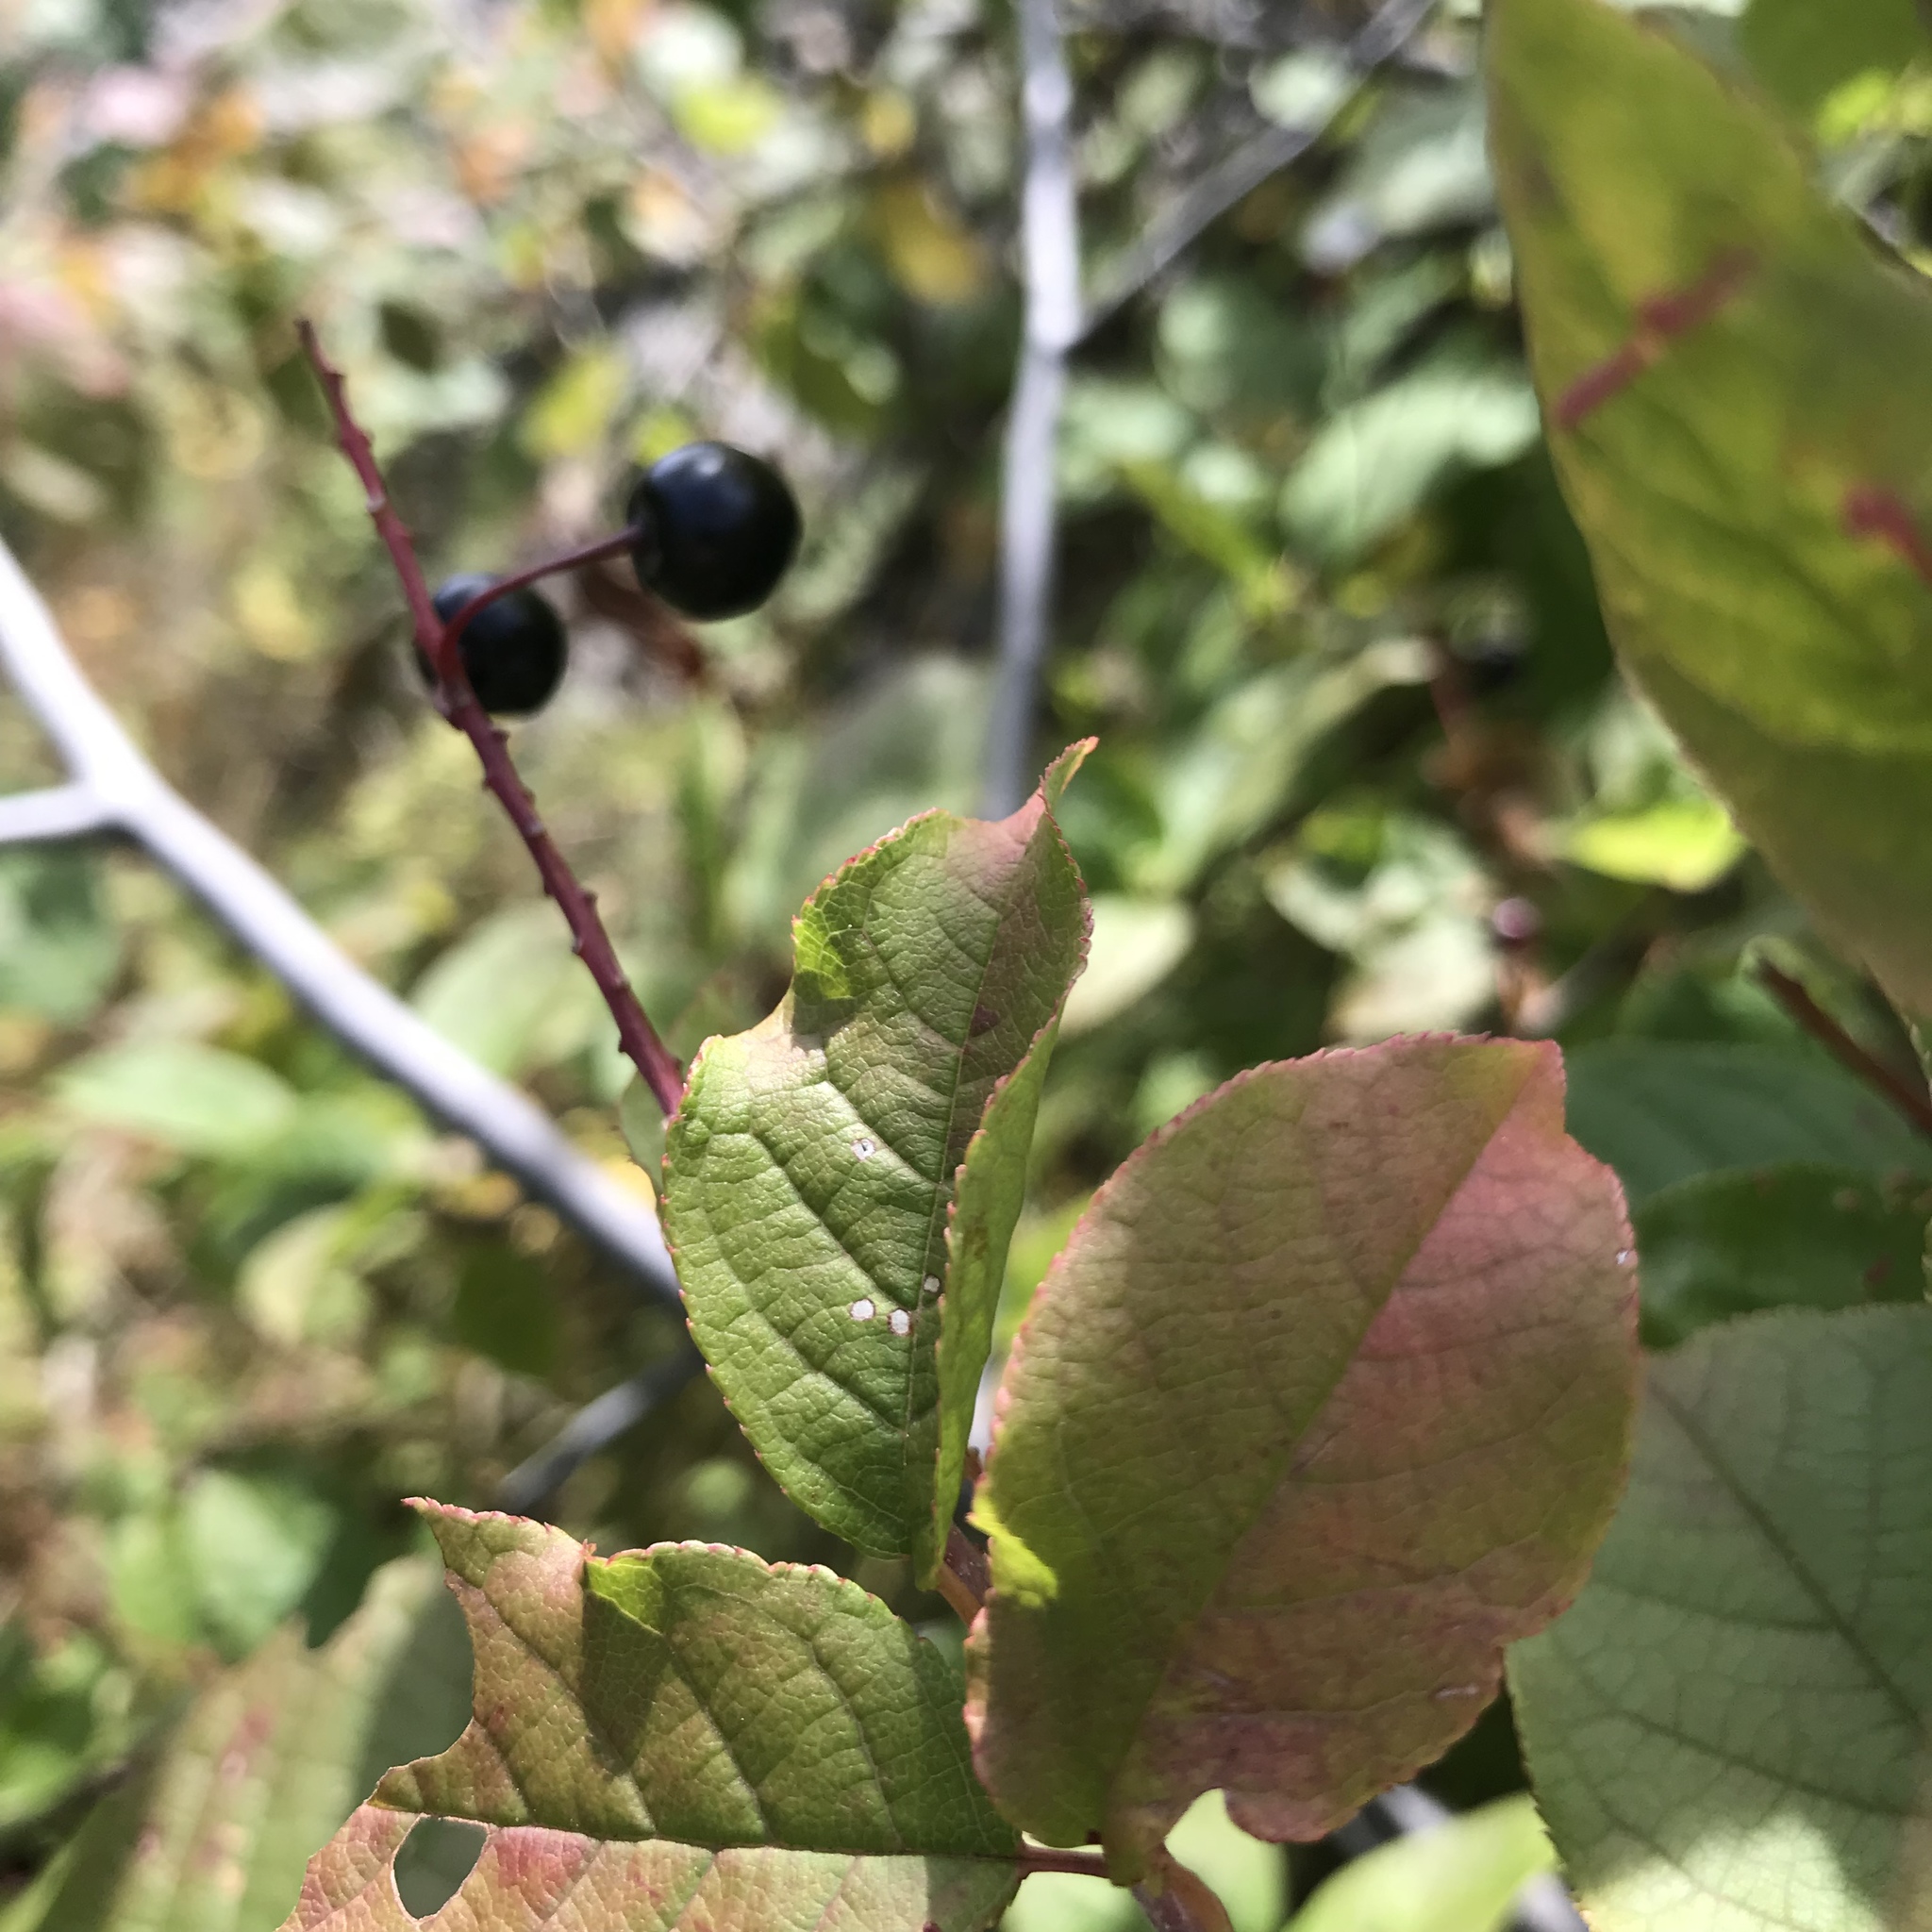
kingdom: Plantae
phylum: Tracheophyta
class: Magnoliopsida
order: Rosales
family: Rosaceae
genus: Prunus
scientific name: Prunus padus
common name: Bird cherry
